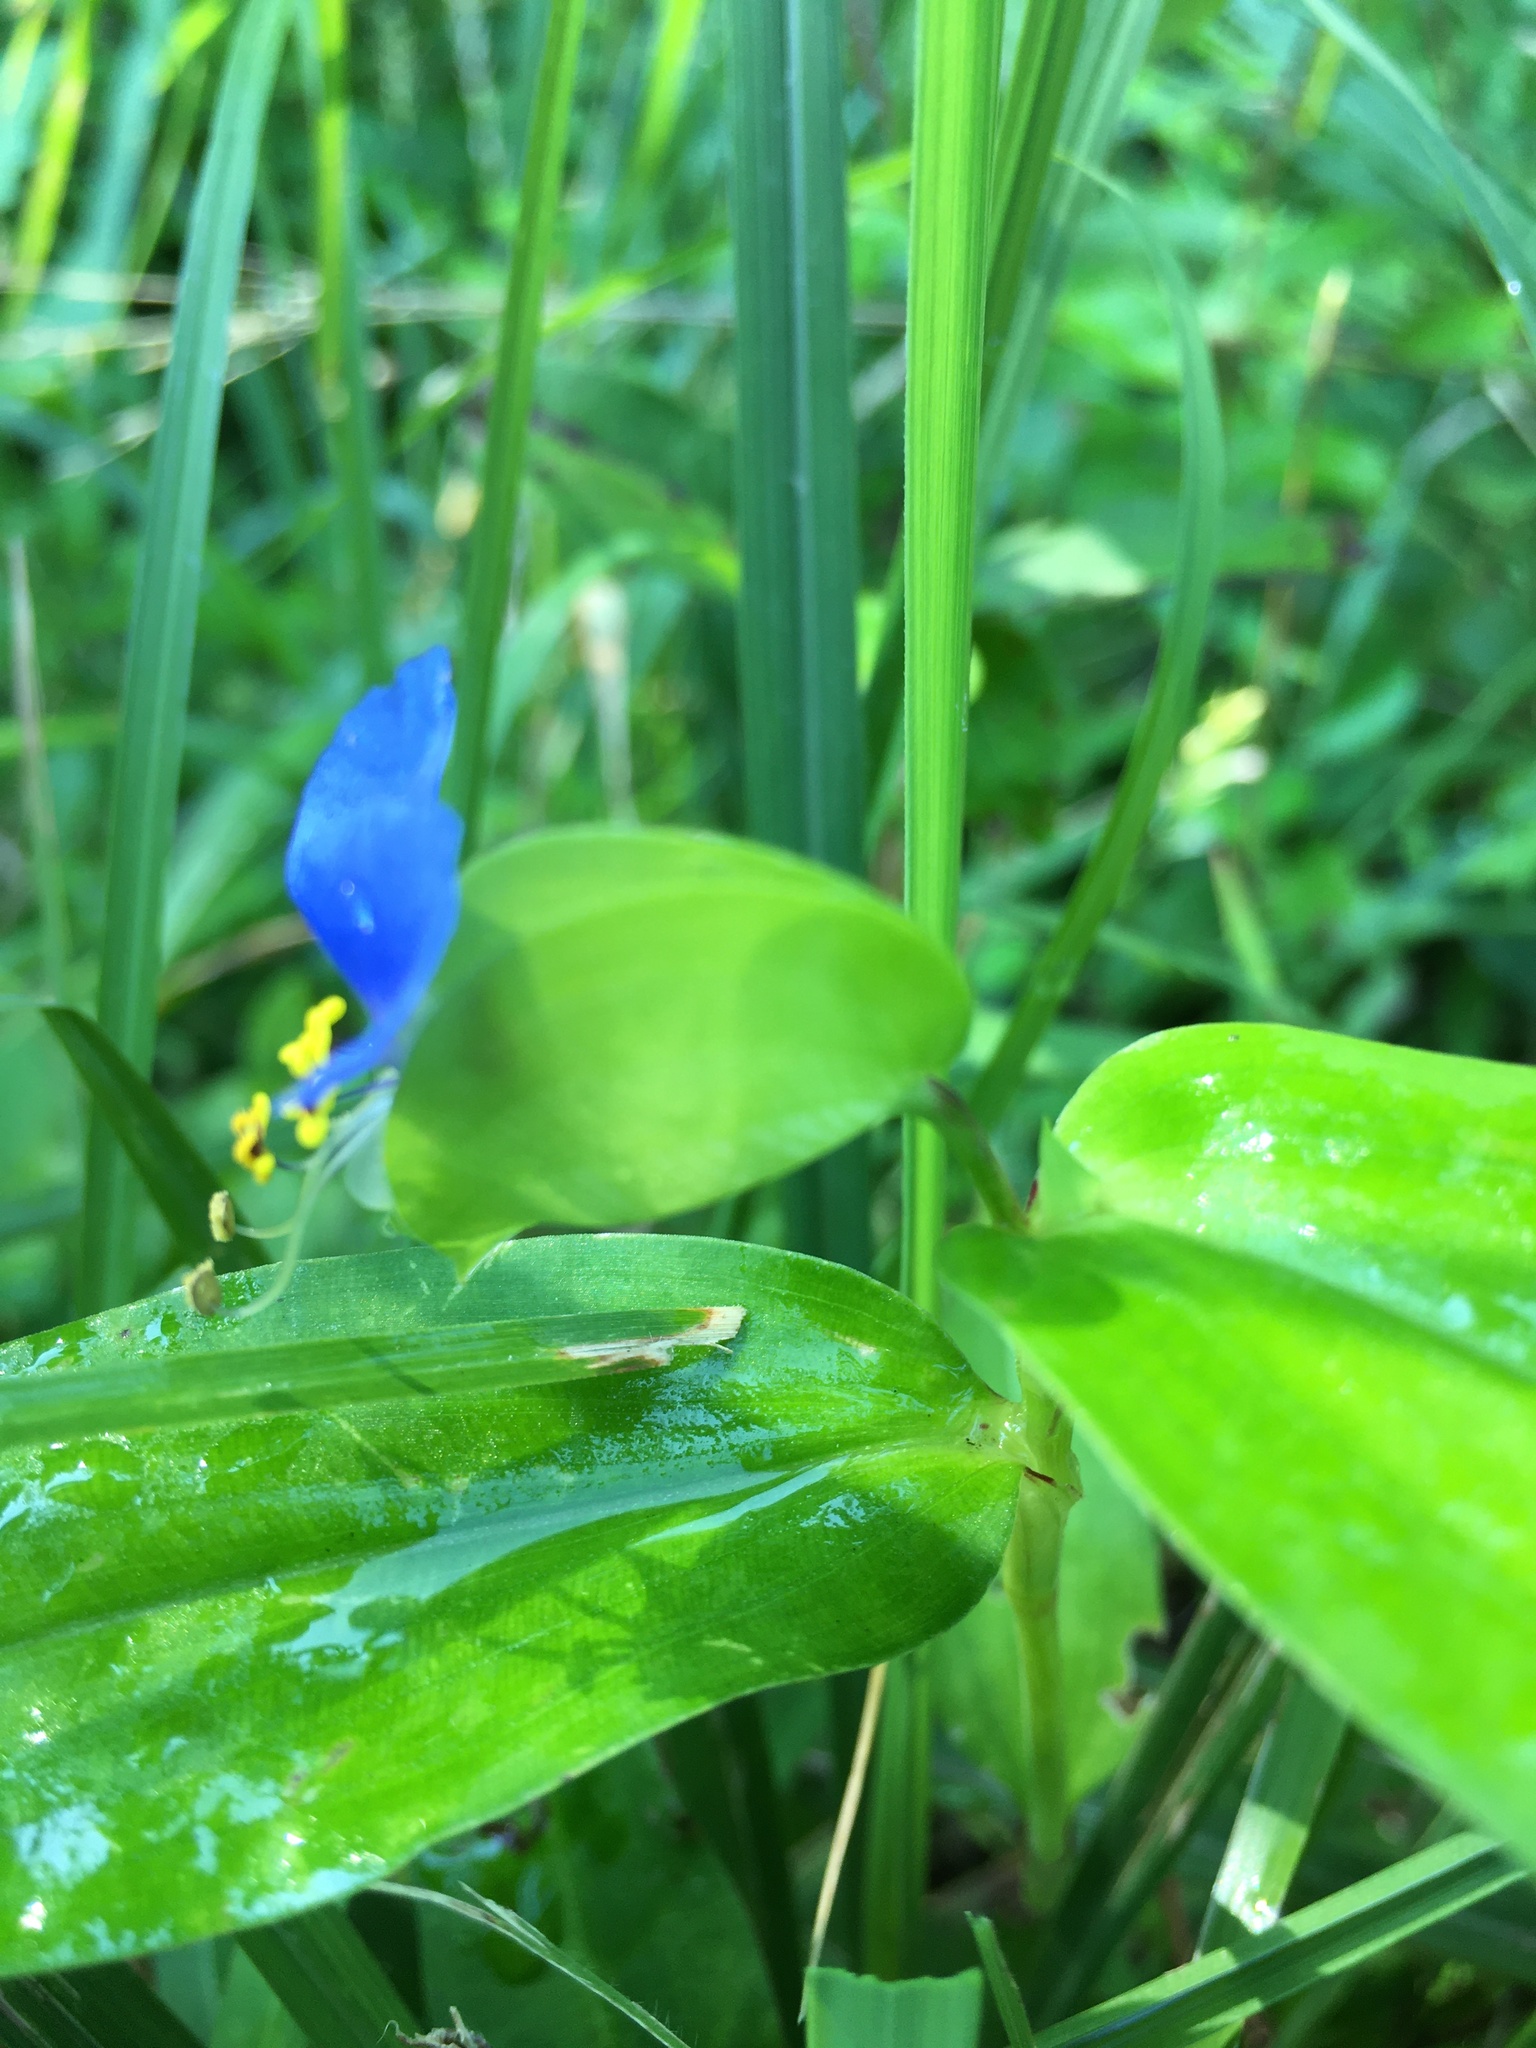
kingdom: Plantae
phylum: Tracheophyta
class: Liliopsida
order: Commelinales
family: Commelinaceae
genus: Commelina
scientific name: Commelina communis
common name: Asiatic dayflower
